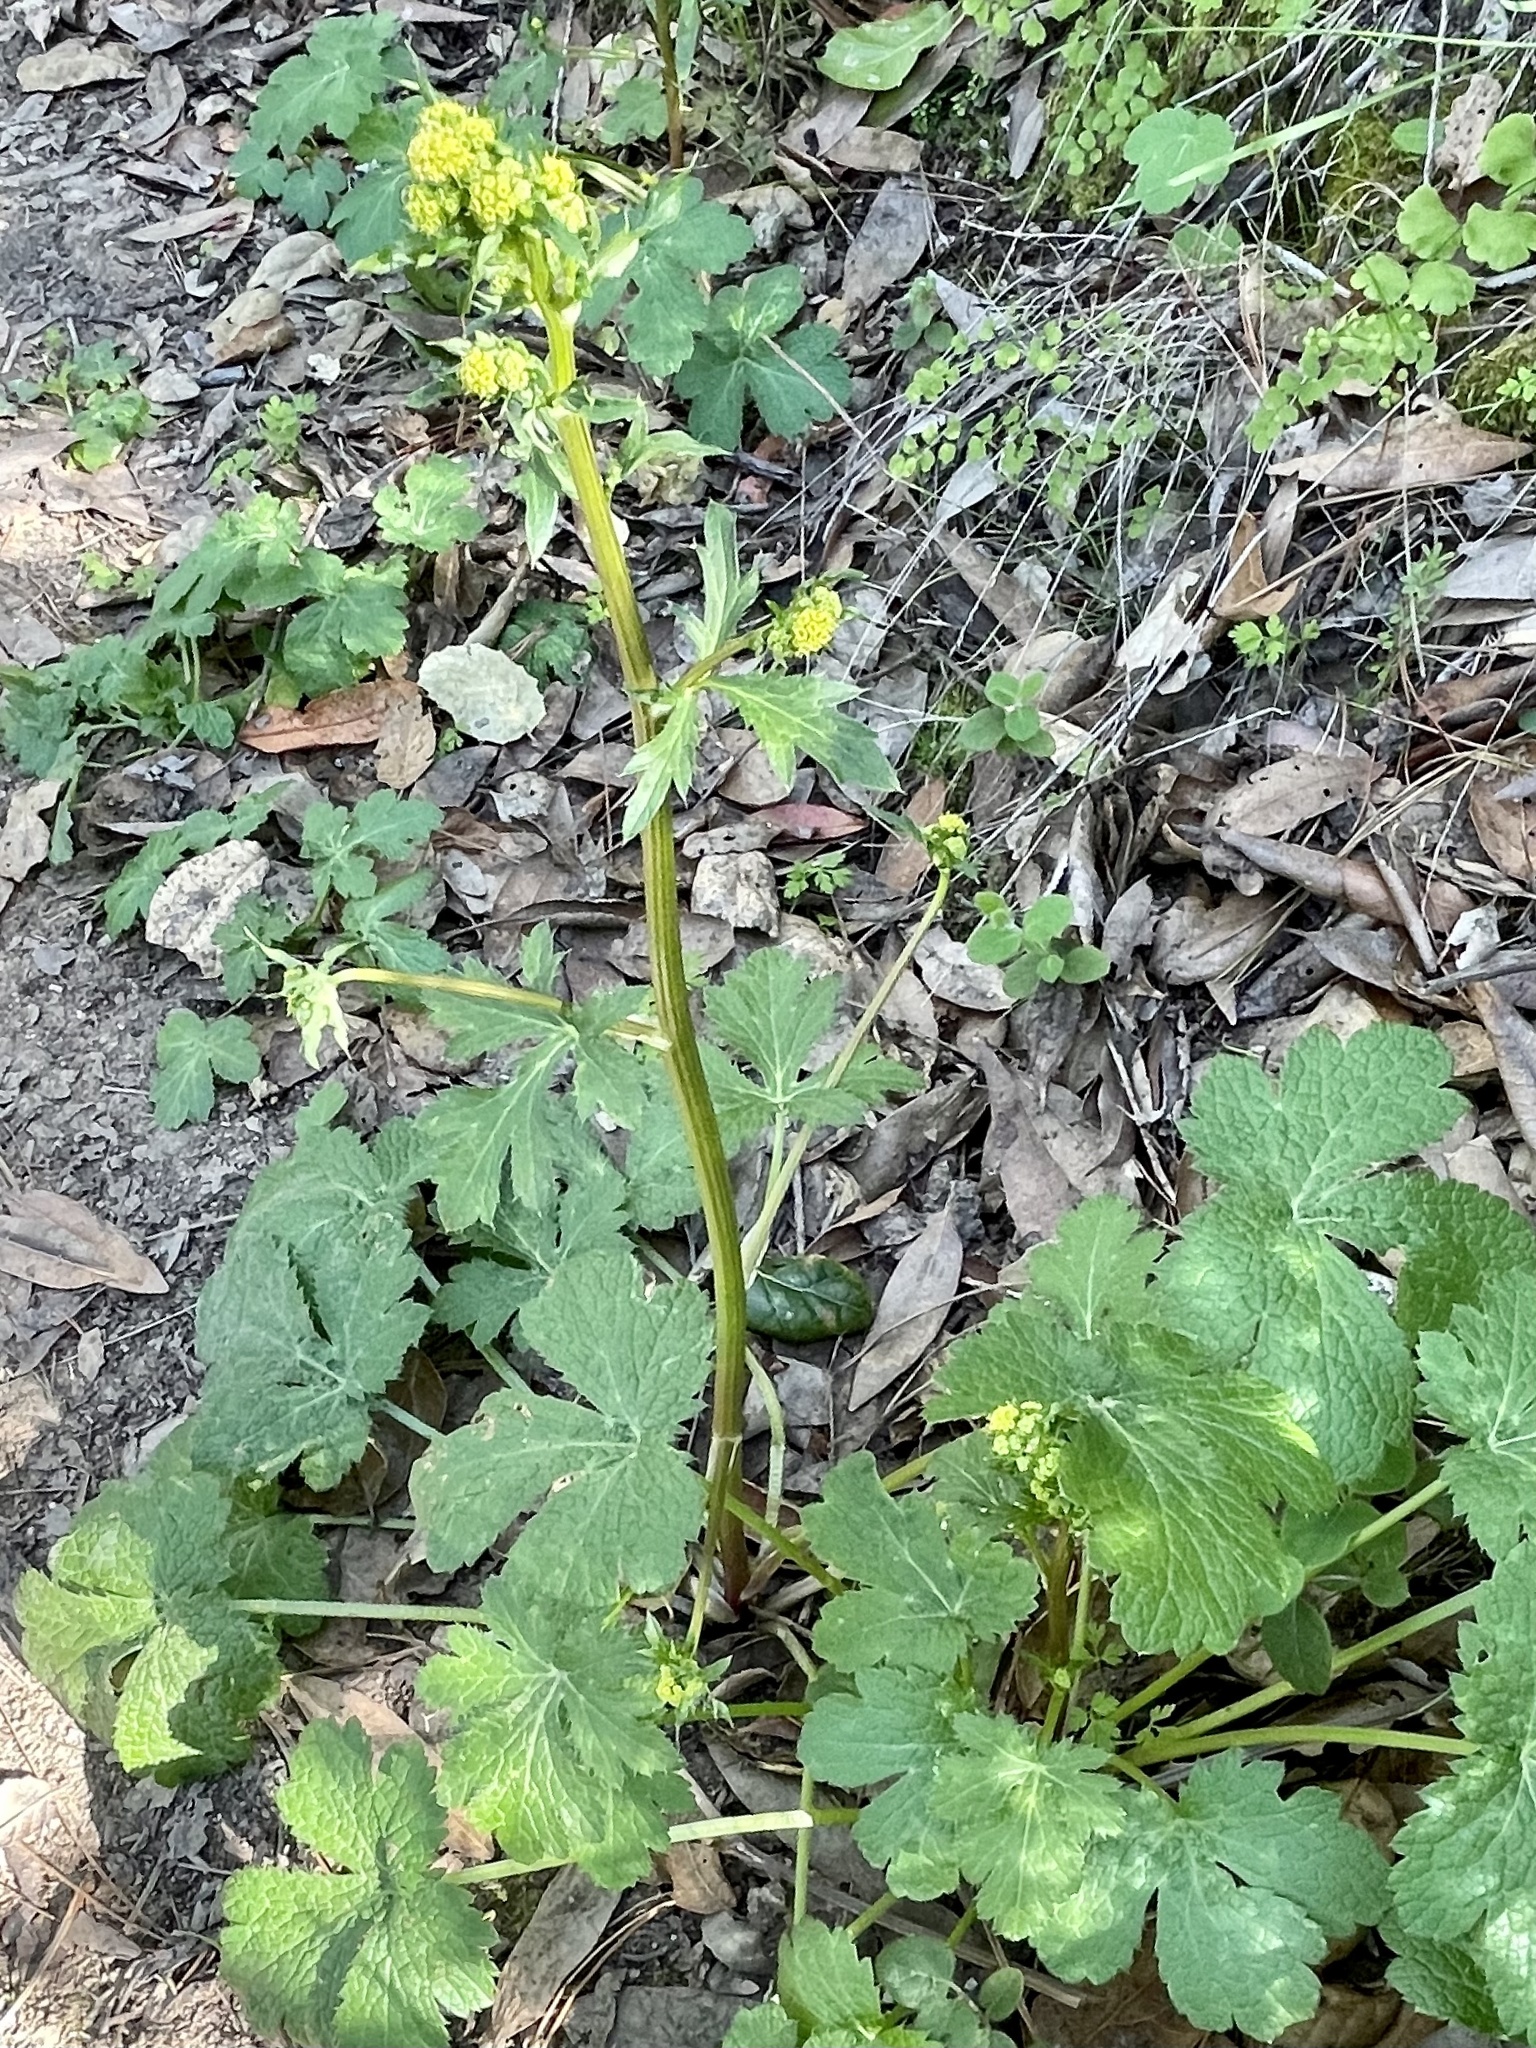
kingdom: Plantae
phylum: Tracheophyta
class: Magnoliopsida
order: Apiales
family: Apiaceae
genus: Sanicula
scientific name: Sanicula crassicaulis
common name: Western snakeroot
